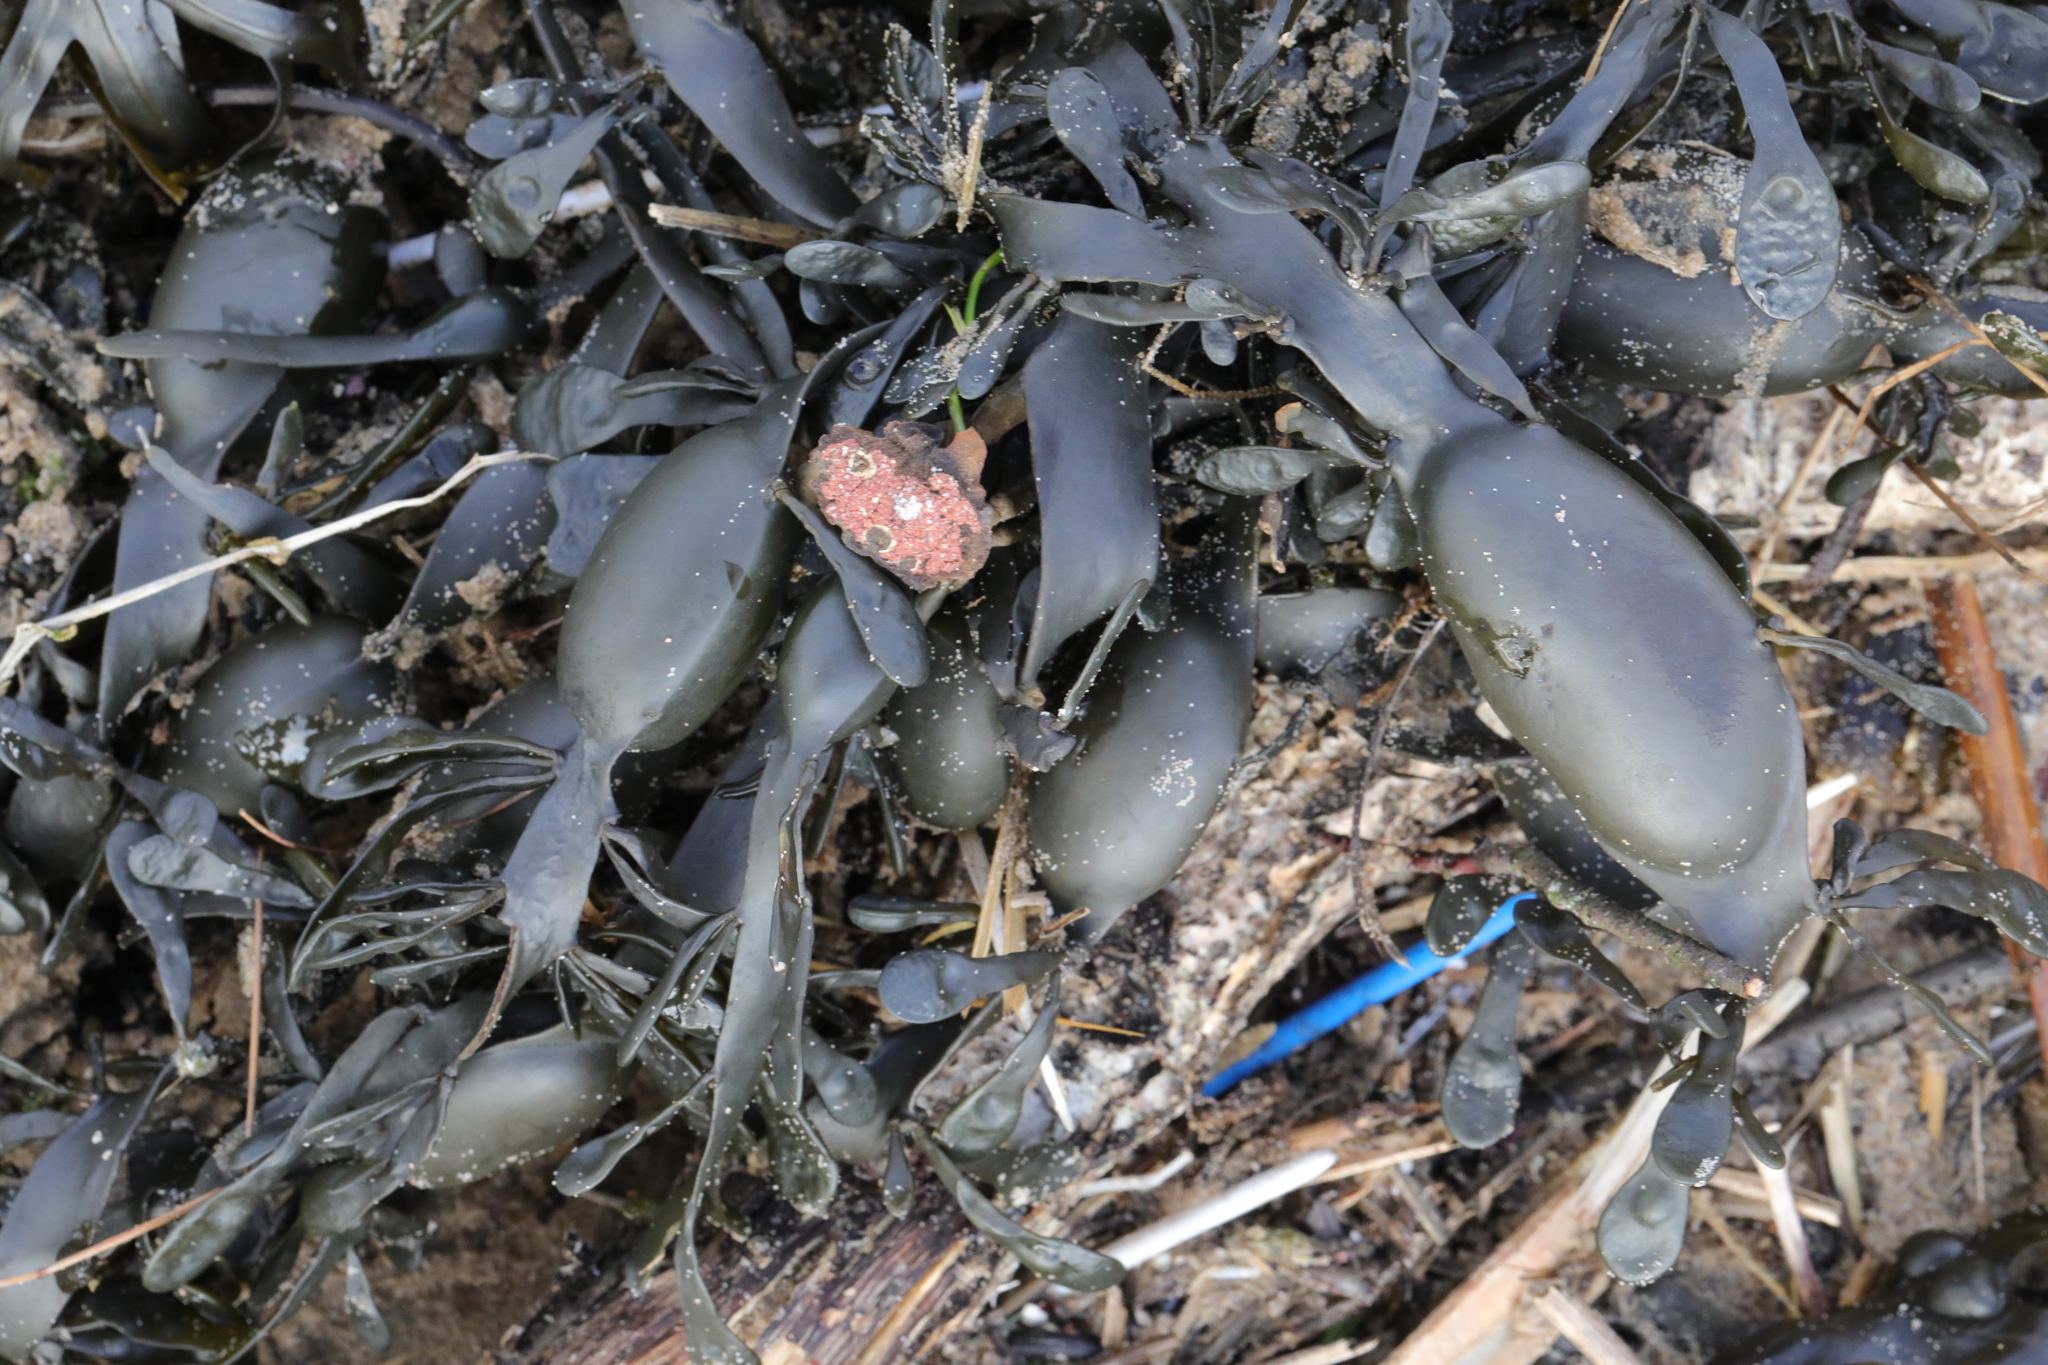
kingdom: Chromista
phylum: Ochrophyta
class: Phaeophyceae
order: Fucales
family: Fucaceae
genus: Ascophyllum
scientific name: Ascophyllum nodosum
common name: Knotted wrack
